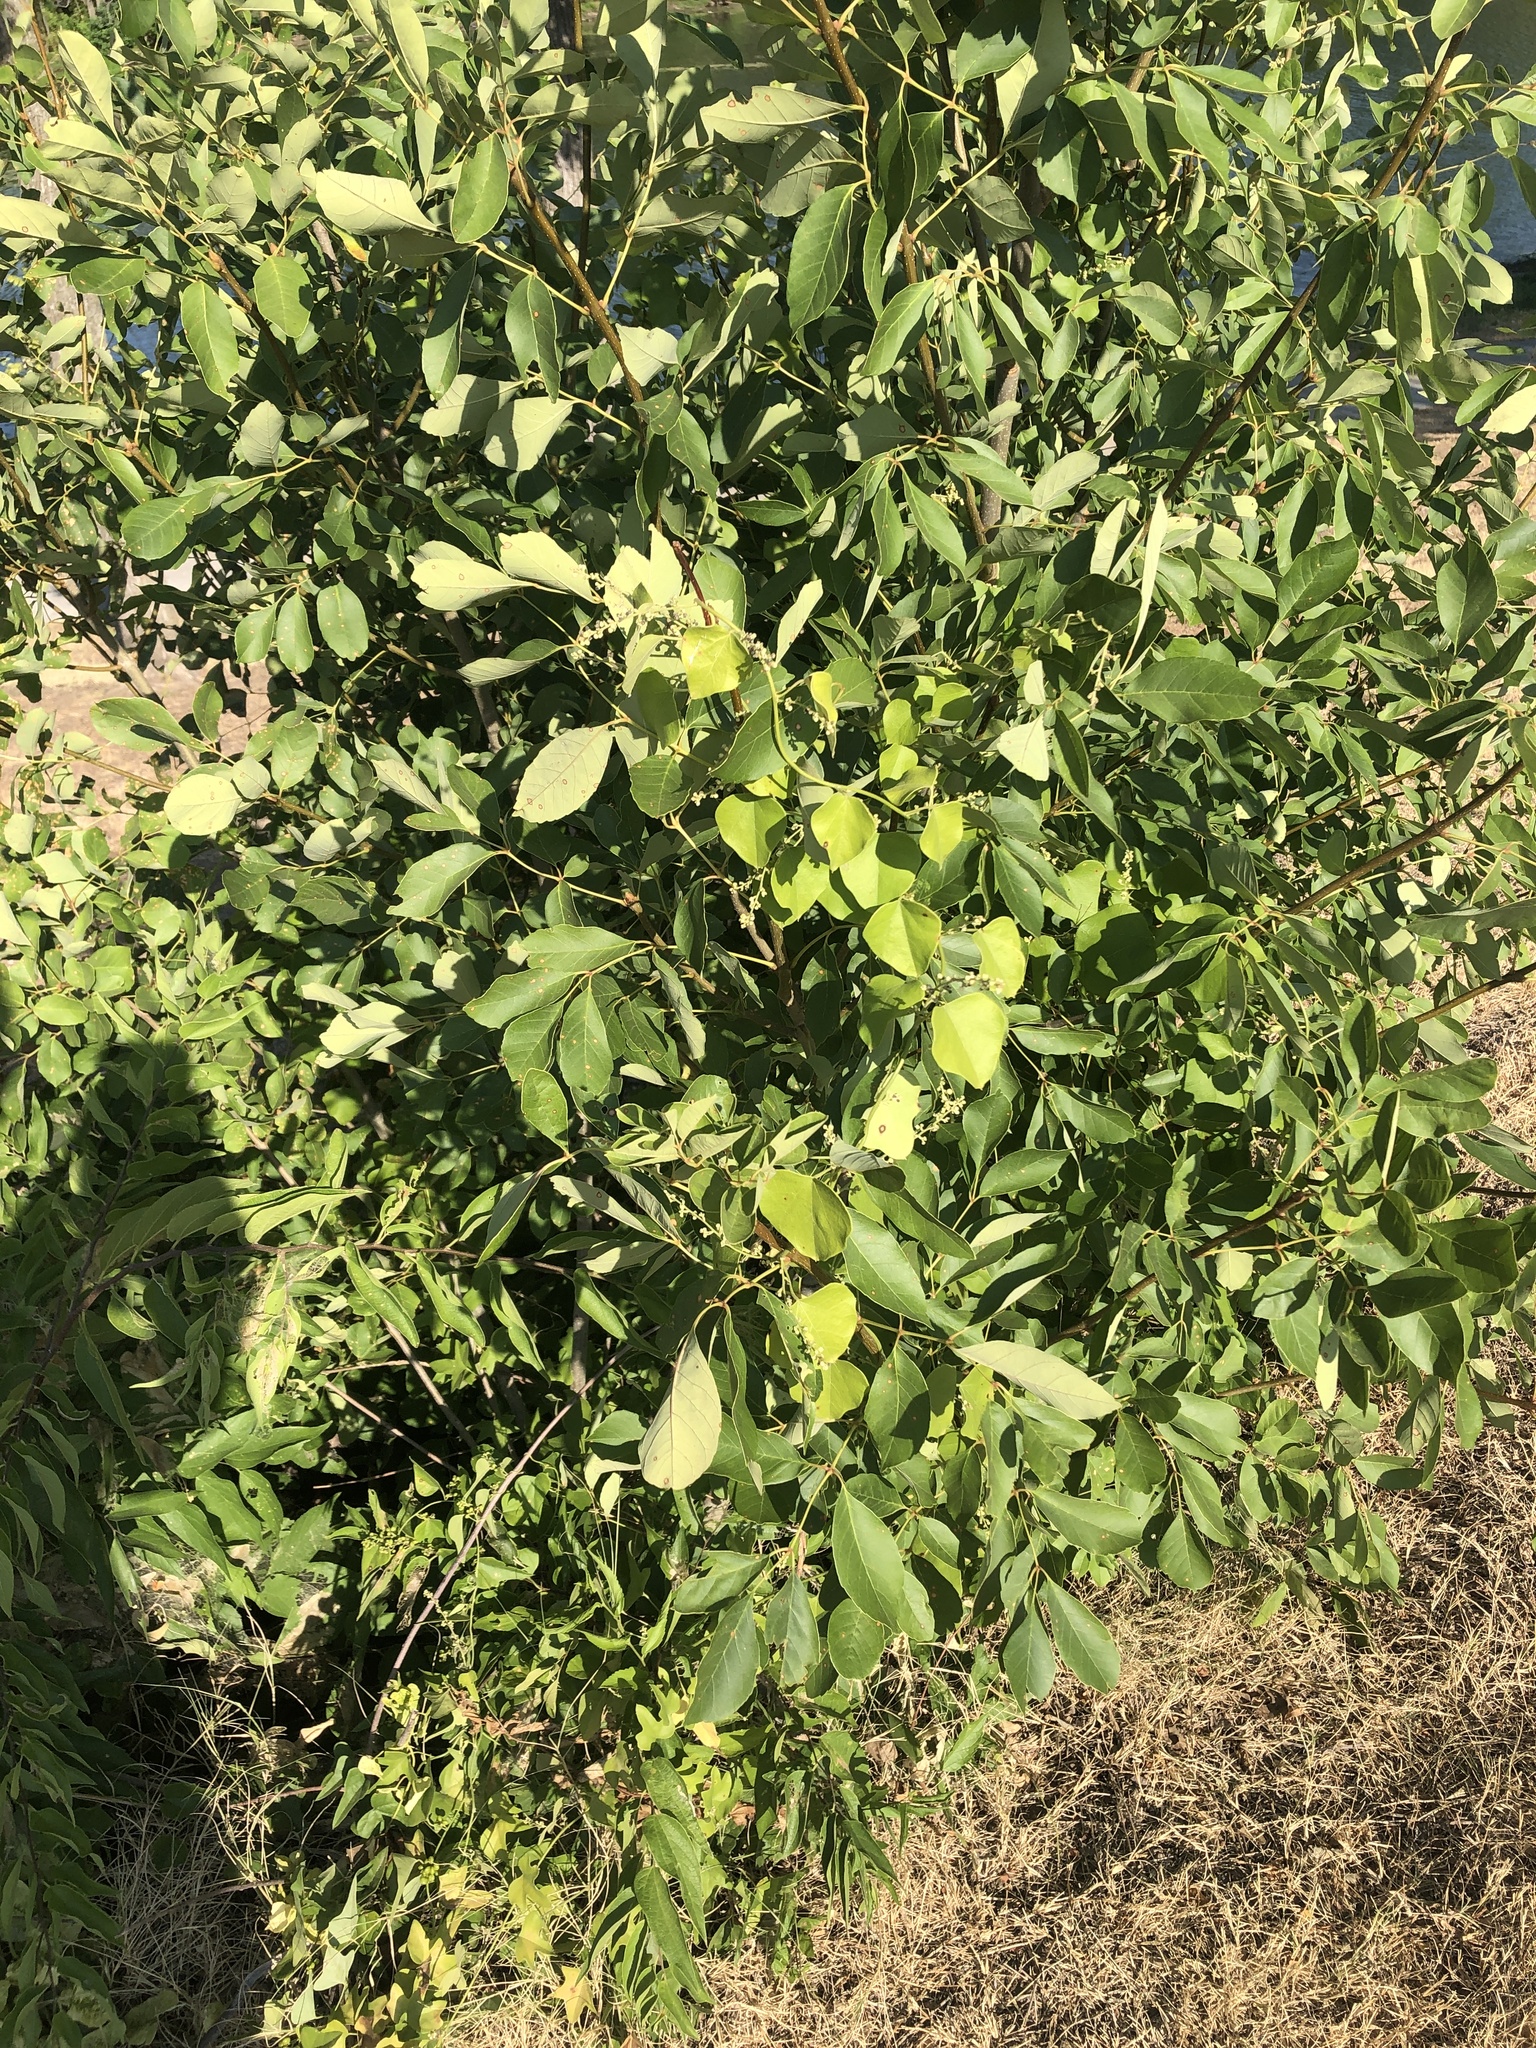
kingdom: Plantae
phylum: Tracheophyta
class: Magnoliopsida
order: Ranunculales
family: Menispermaceae
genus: Cocculus
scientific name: Cocculus carolinus
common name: Carolina moonseed
